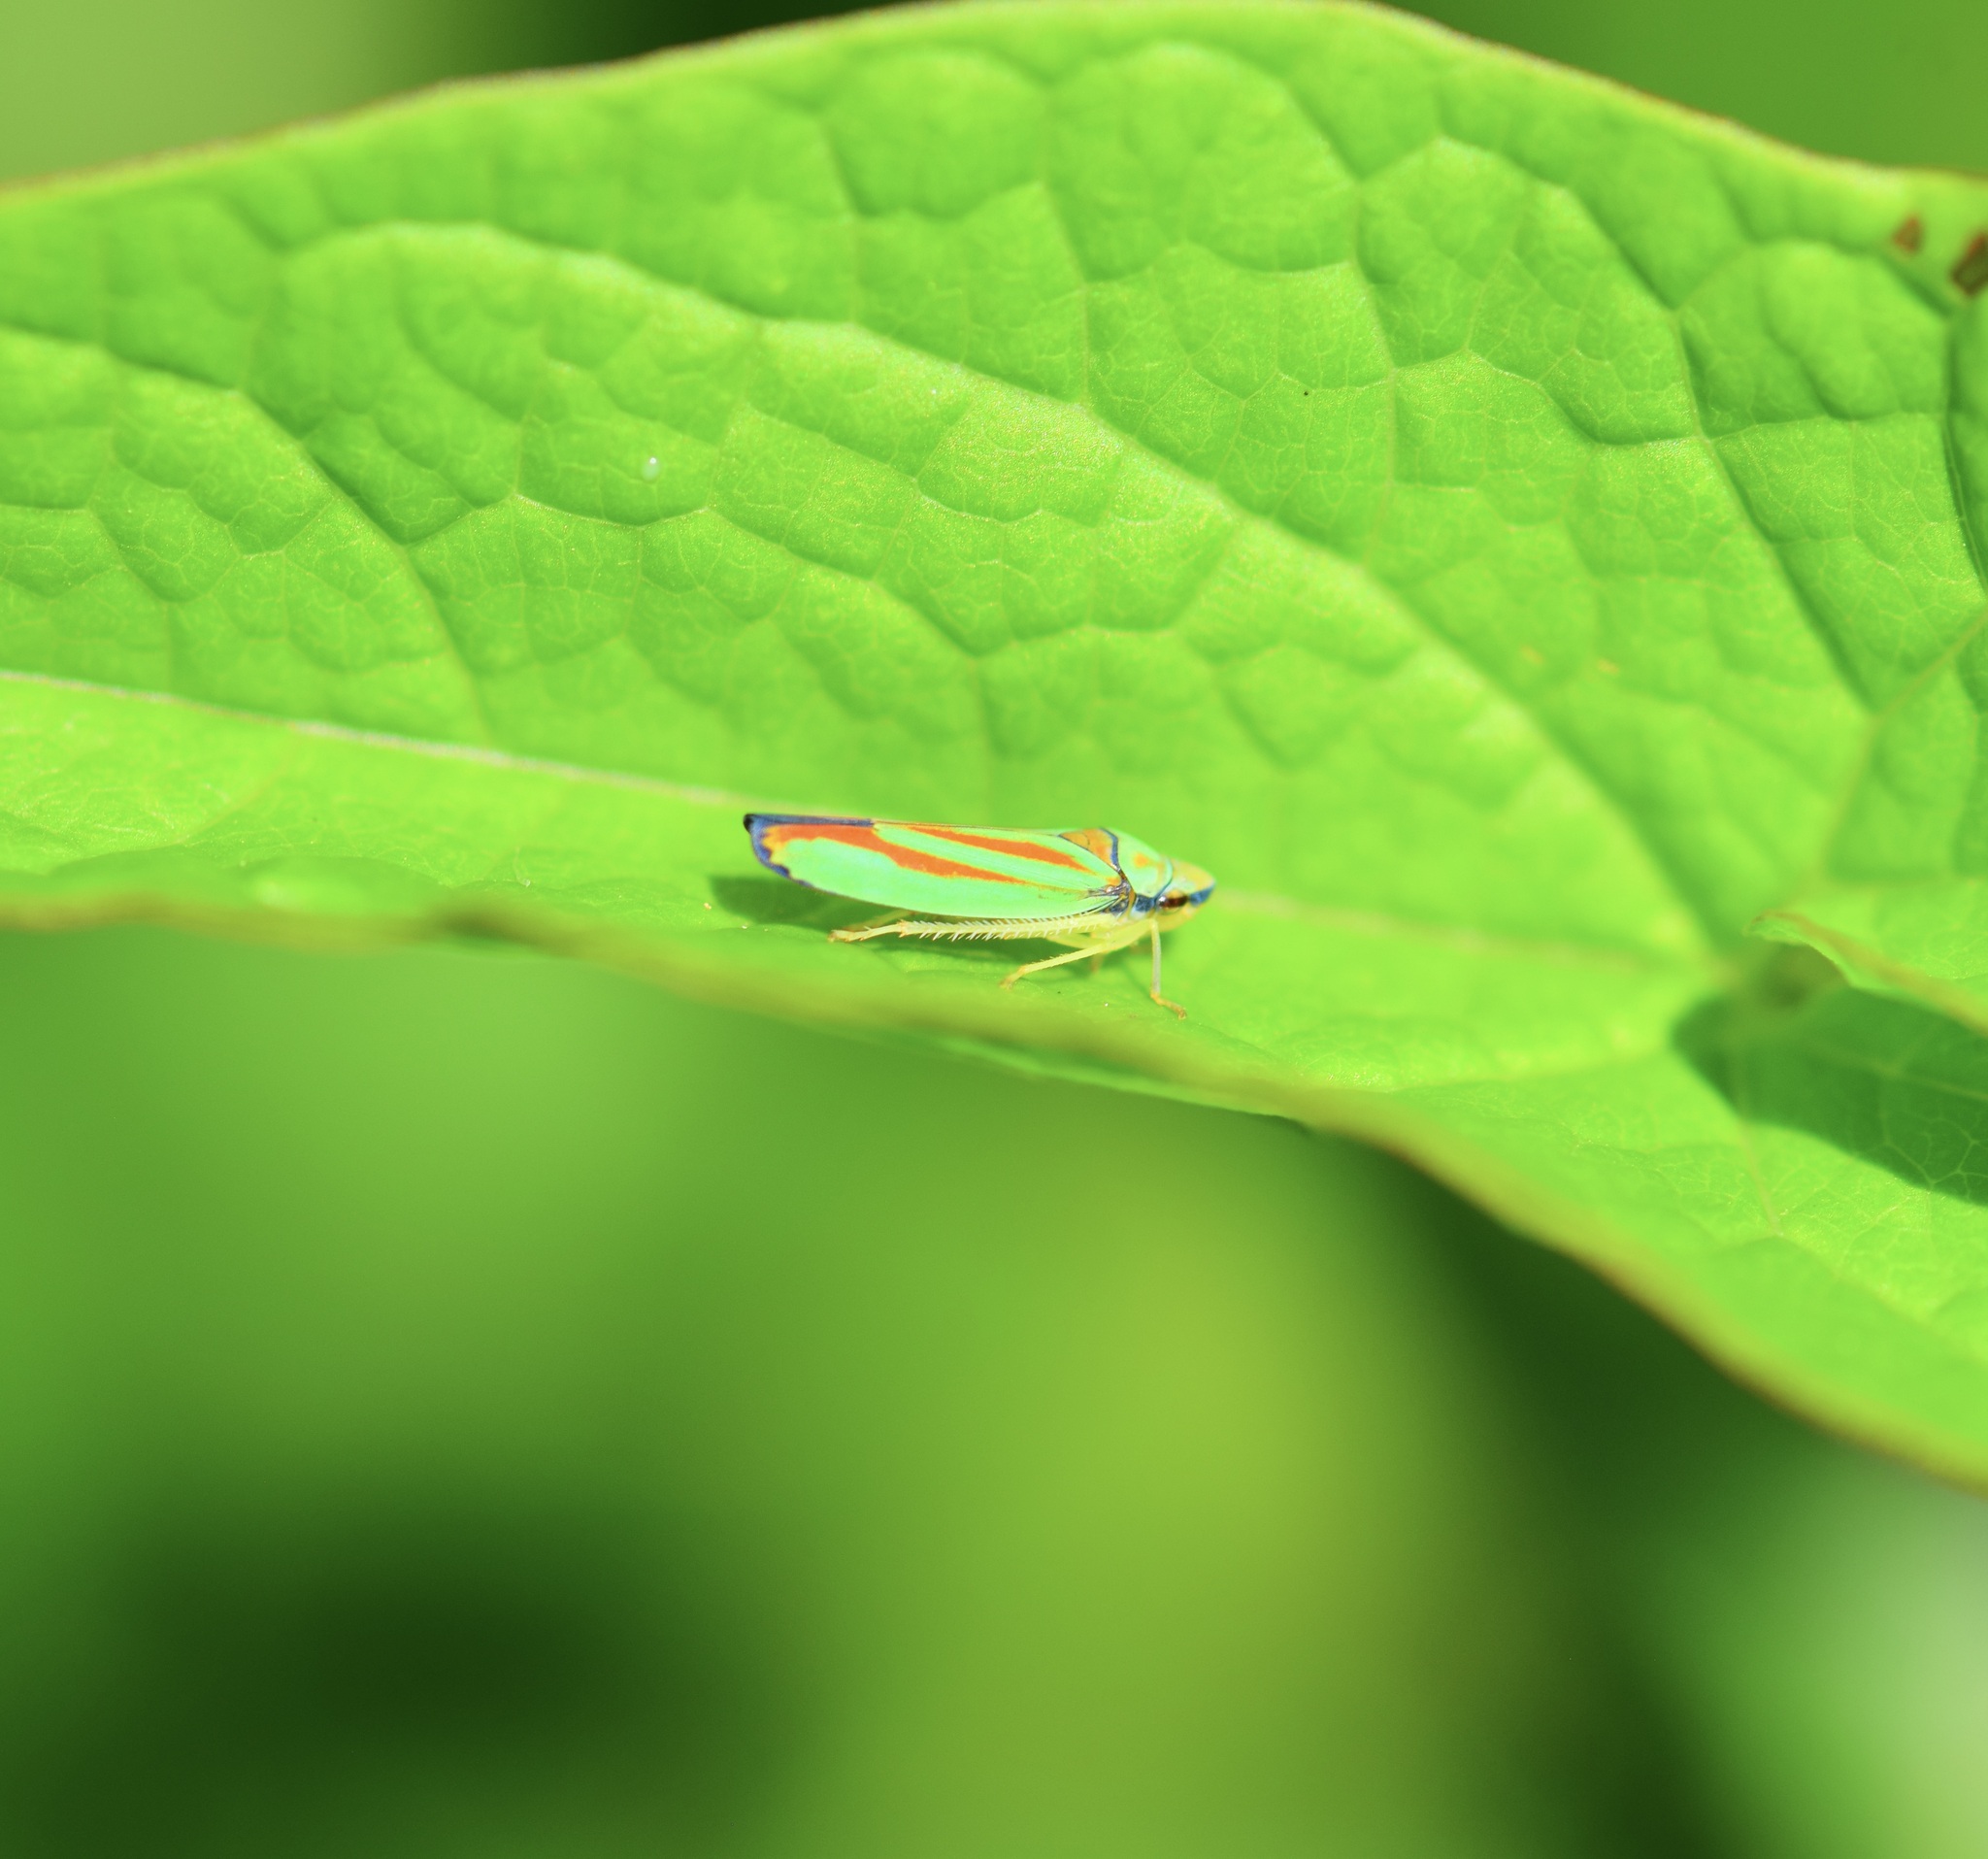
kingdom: Animalia
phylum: Arthropoda
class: Insecta
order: Hemiptera
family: Cicadellidae
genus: Graphocephala
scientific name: Graphocephala fennahi
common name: Rhododendron leafhopper
